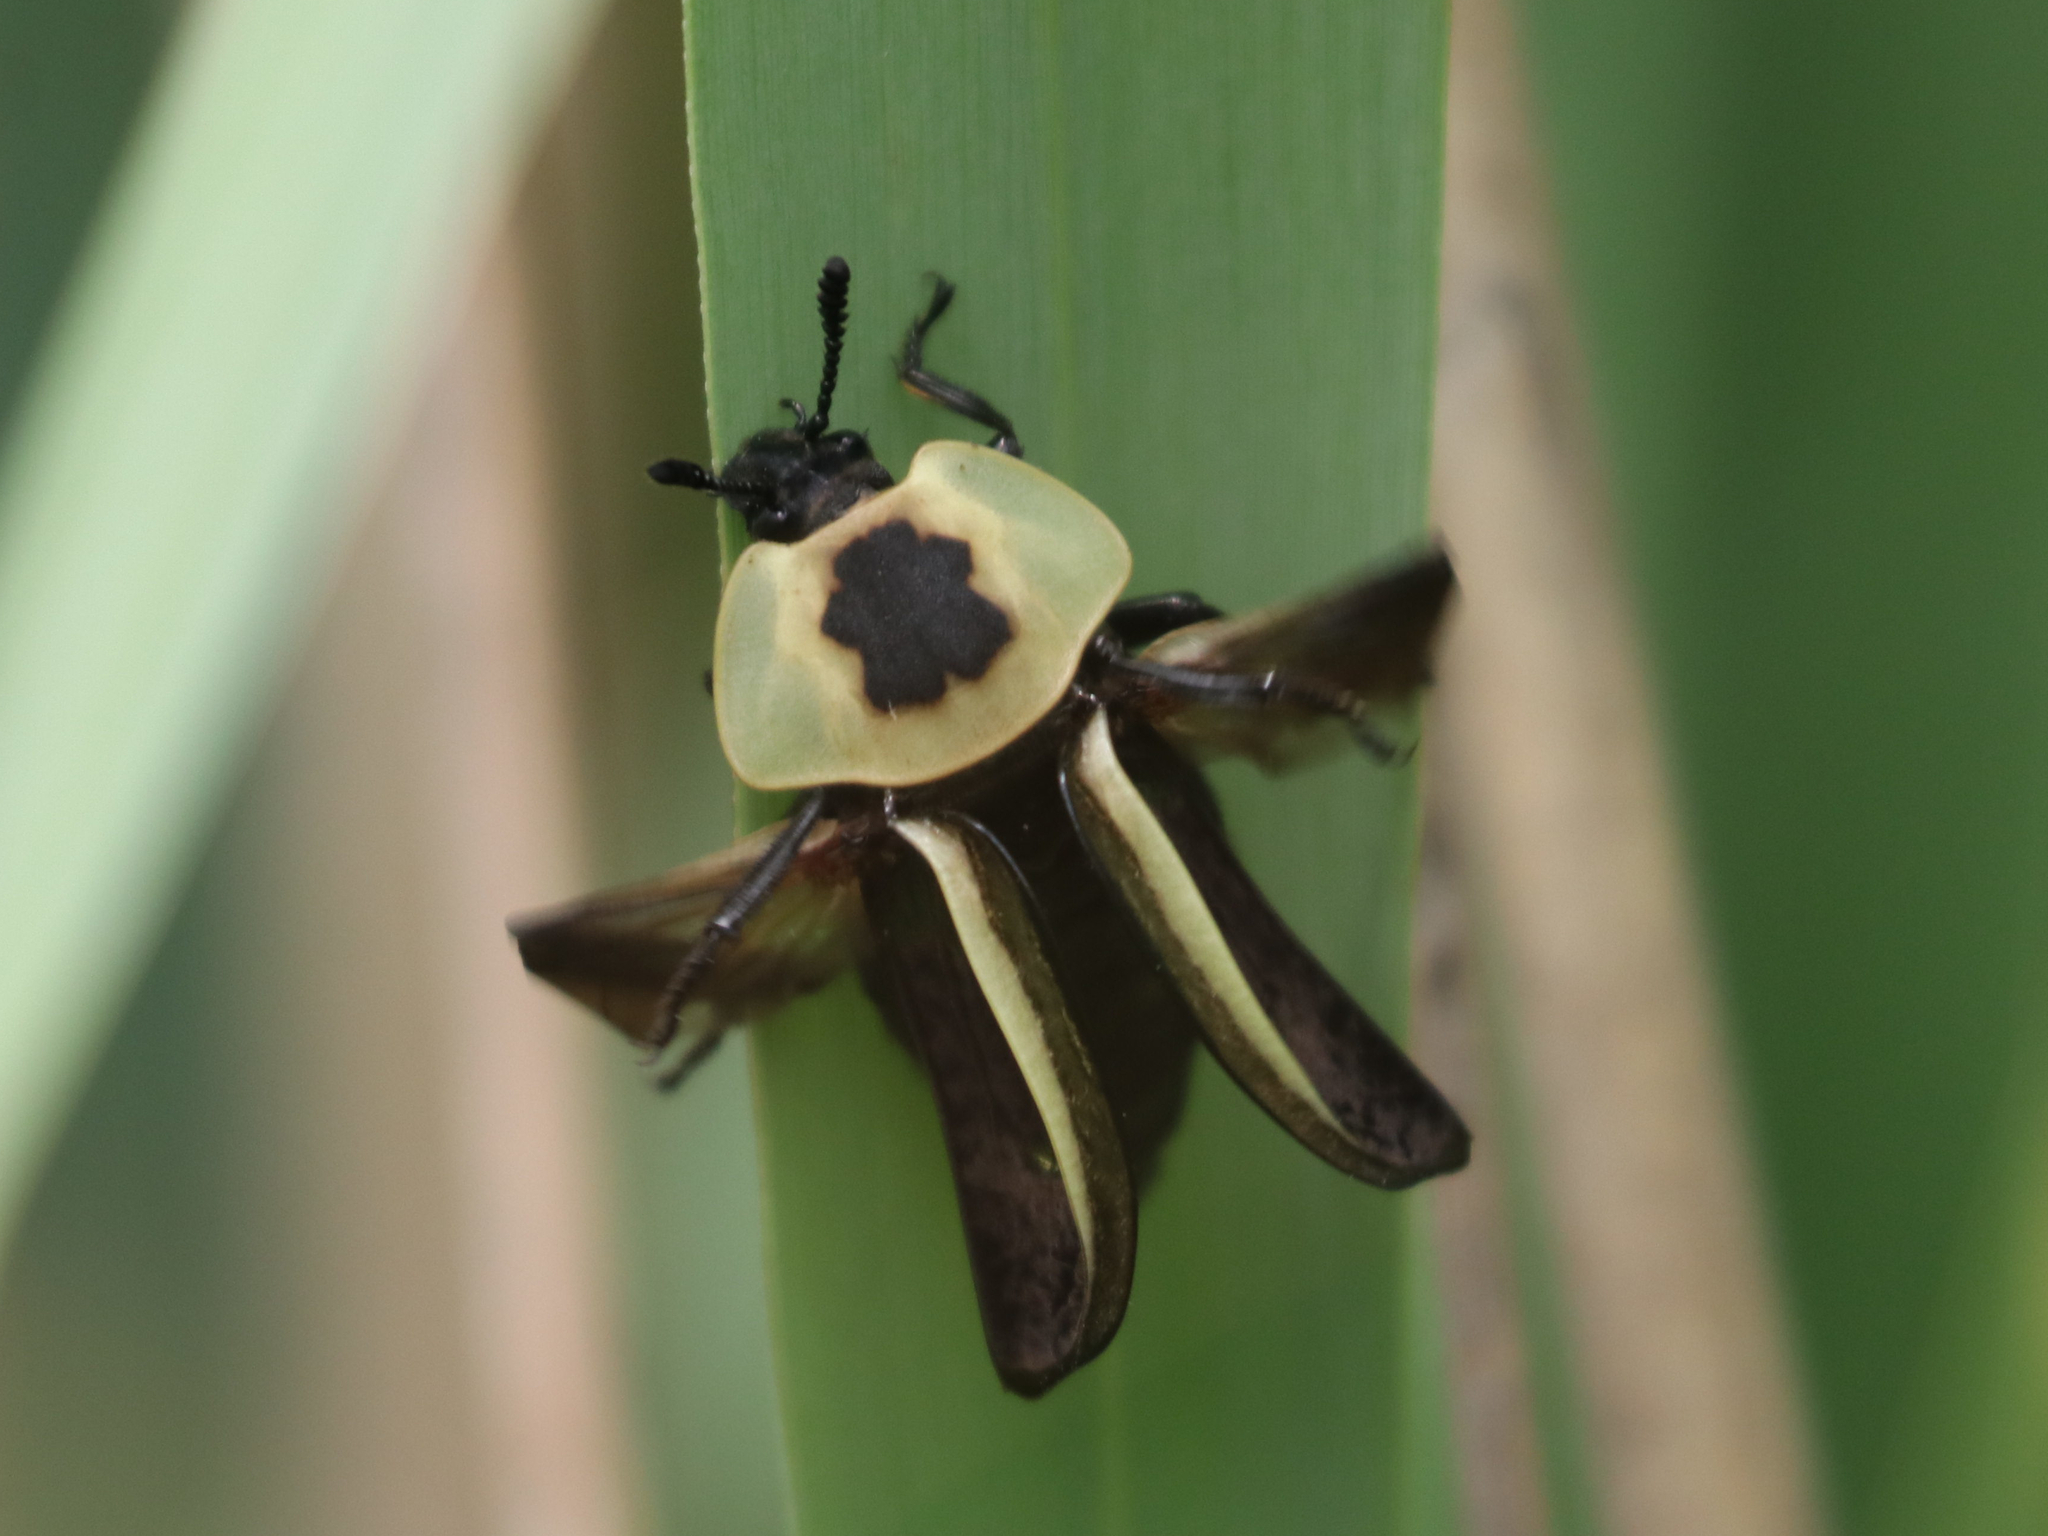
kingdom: Animalia
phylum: Arthropoda
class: Insecta
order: Coleoptera
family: Staphylinidae
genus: Necrophila
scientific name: Necrophila americana
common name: American carrion beetle
